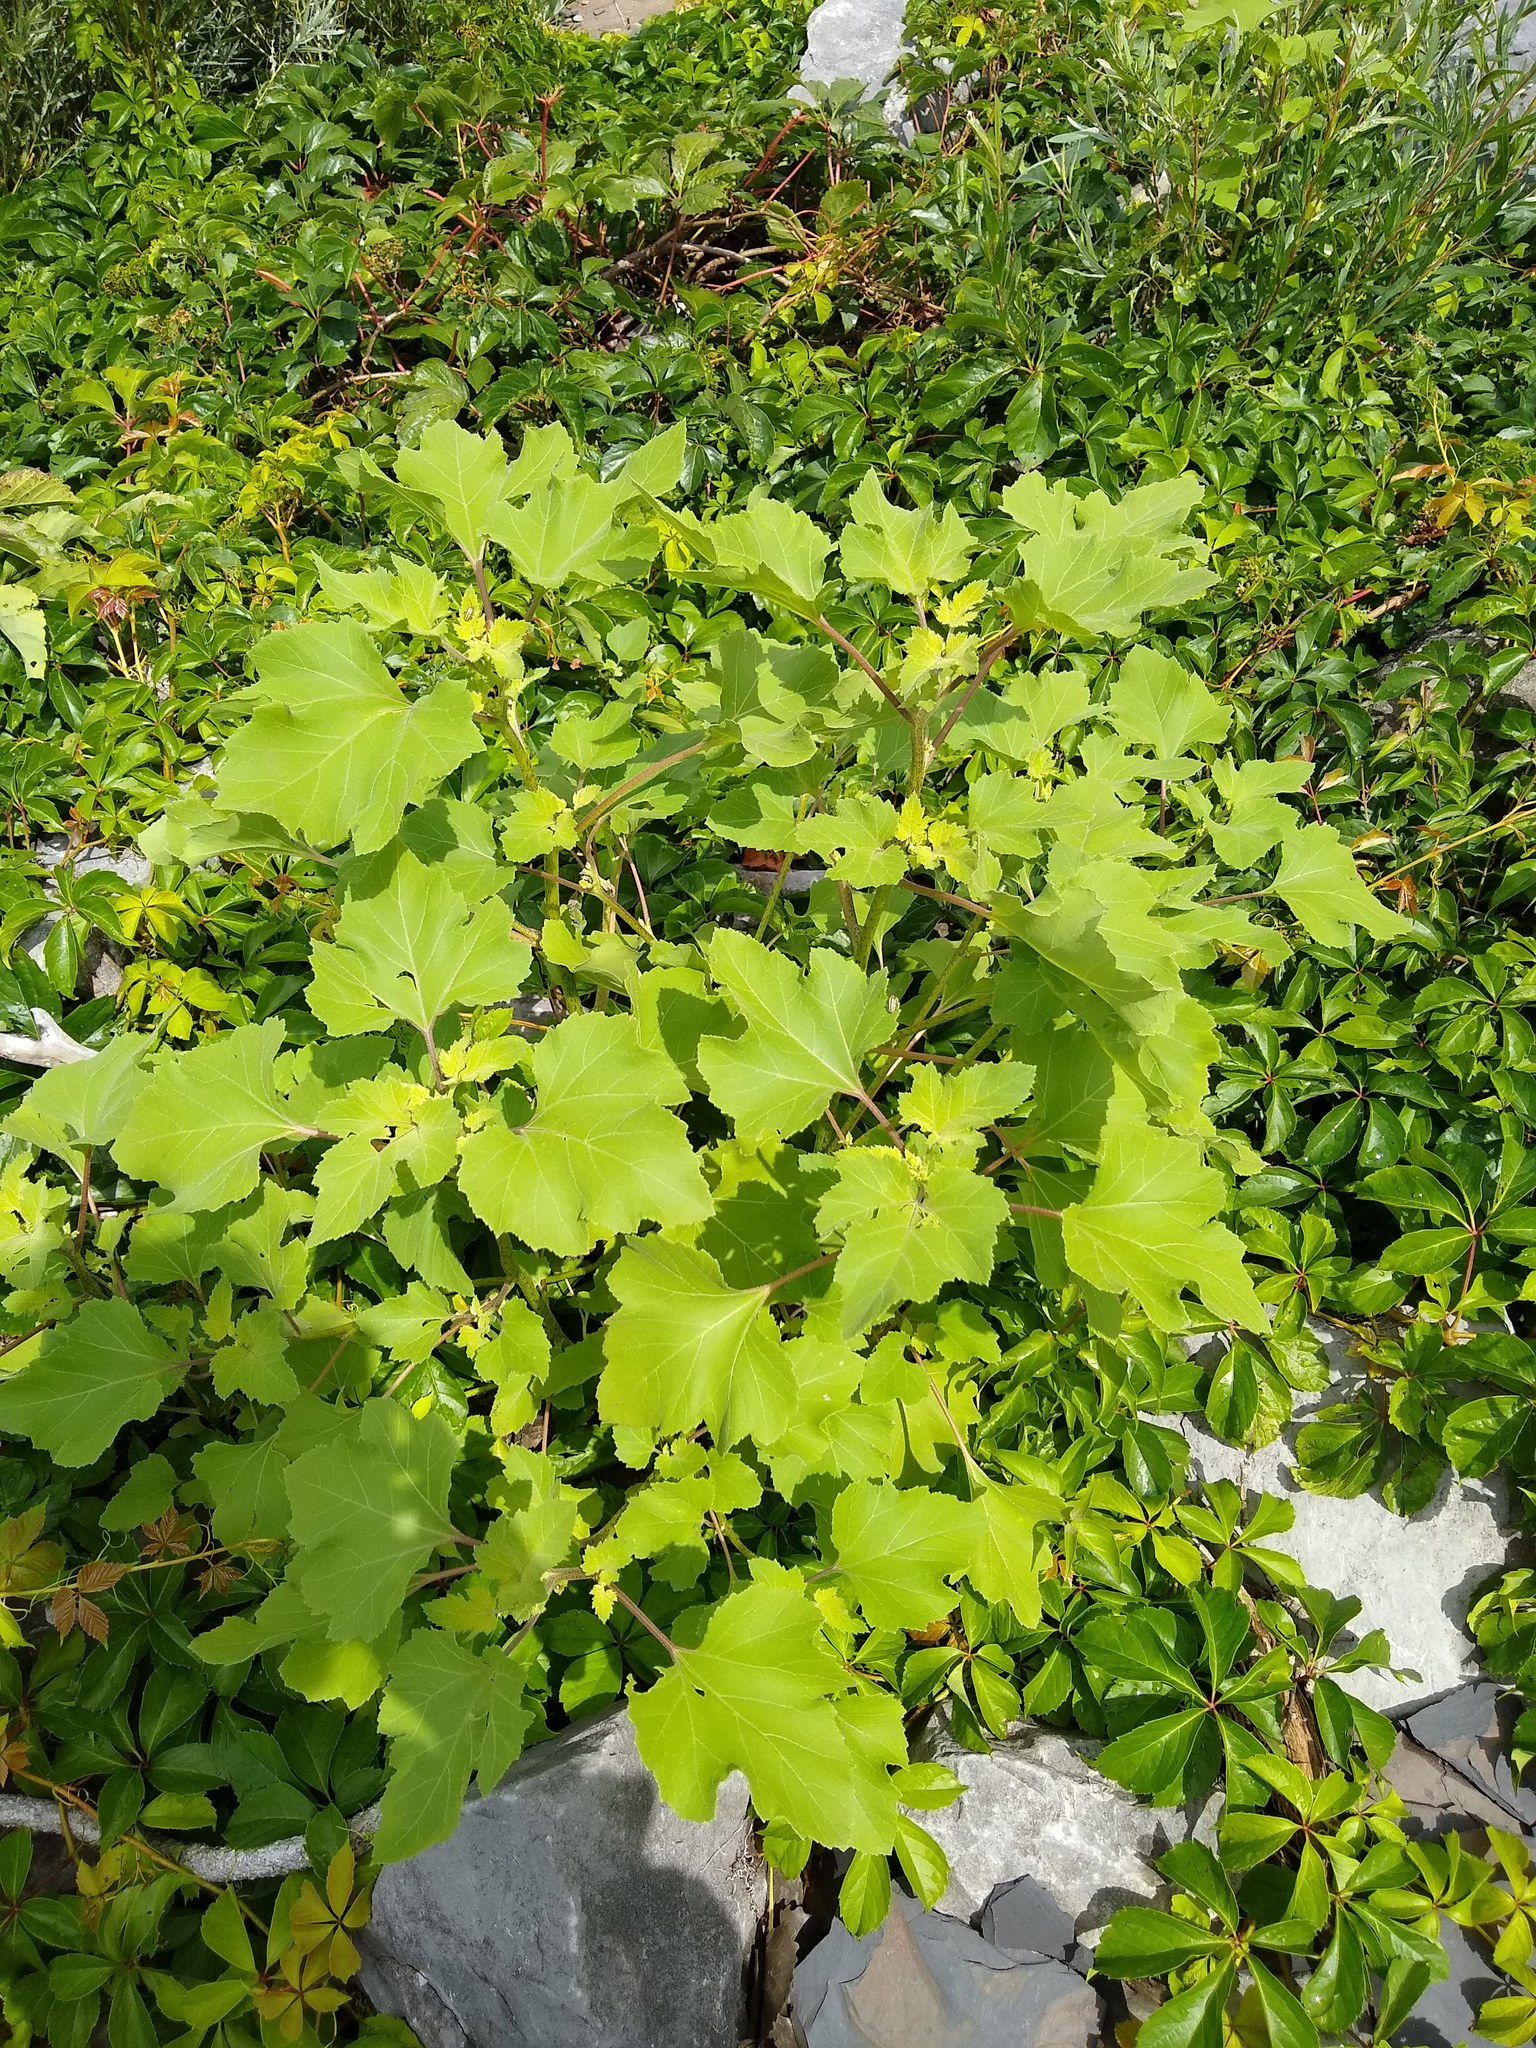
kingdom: Plantae
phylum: Tracheophyta
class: Magnoliopsida
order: Asterales
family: Asteraceae
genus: Xanthium
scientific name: Xanthium strumarium
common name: Rough cocklebur
